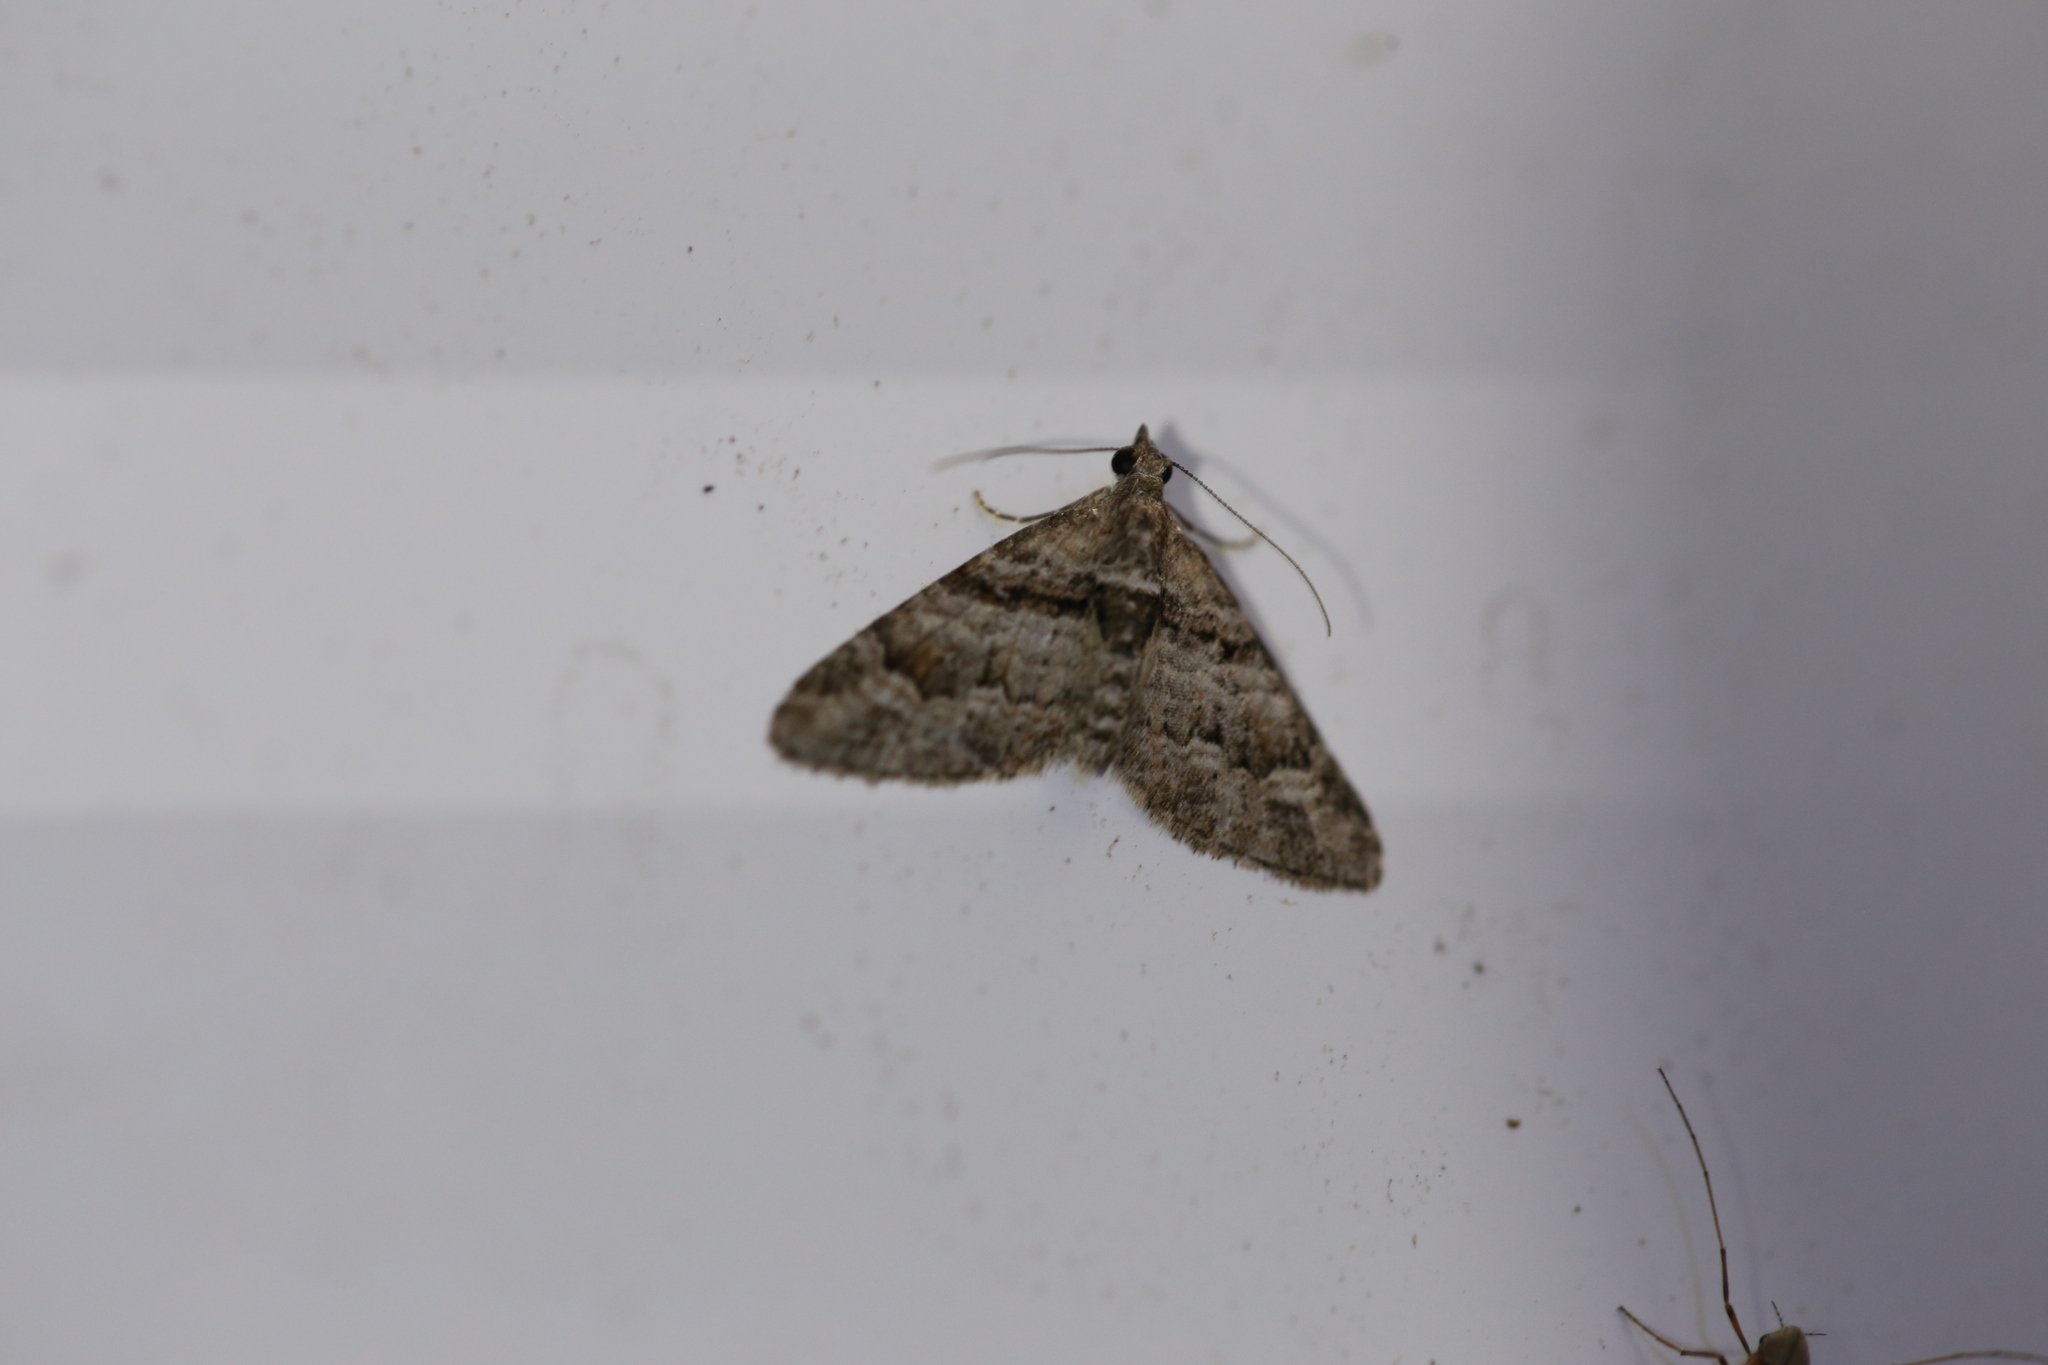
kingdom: Animalia
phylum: Arthropoda
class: Insecta
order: Lepidoptera
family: Geometridae
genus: Phrissogonus
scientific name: Phrissogonus laticostata
